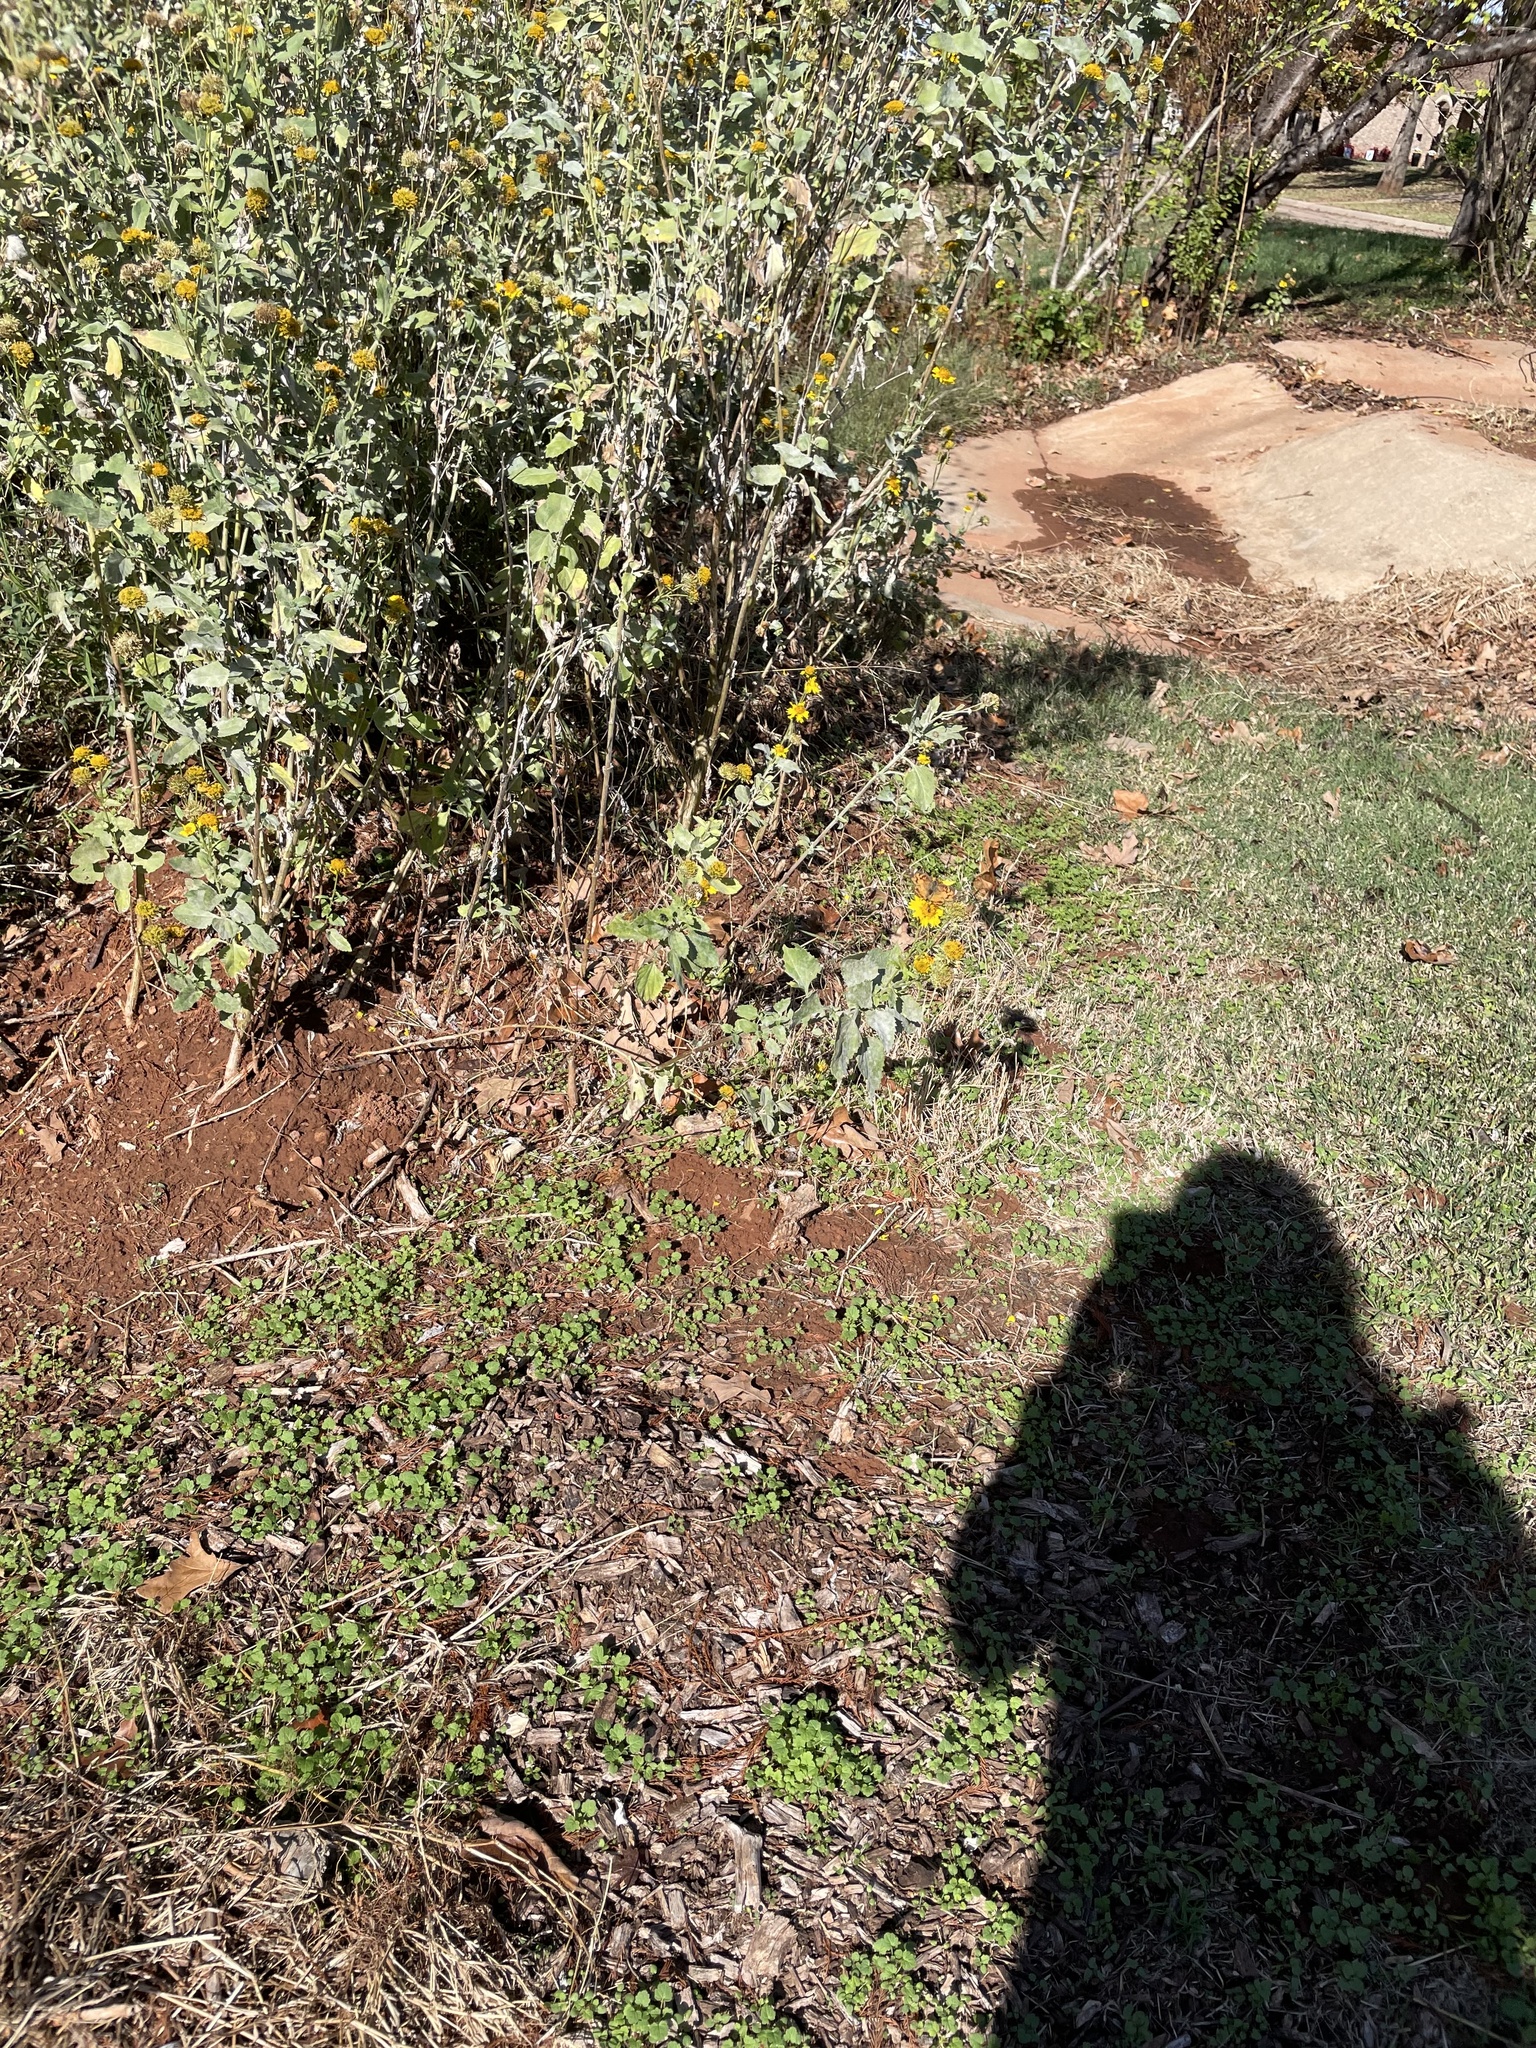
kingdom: Animalia
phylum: Arthropoda
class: Insecta
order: Lepidoptera
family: Nymphalidae
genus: Vanessa
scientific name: Vanessa virginiensis
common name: American lady
